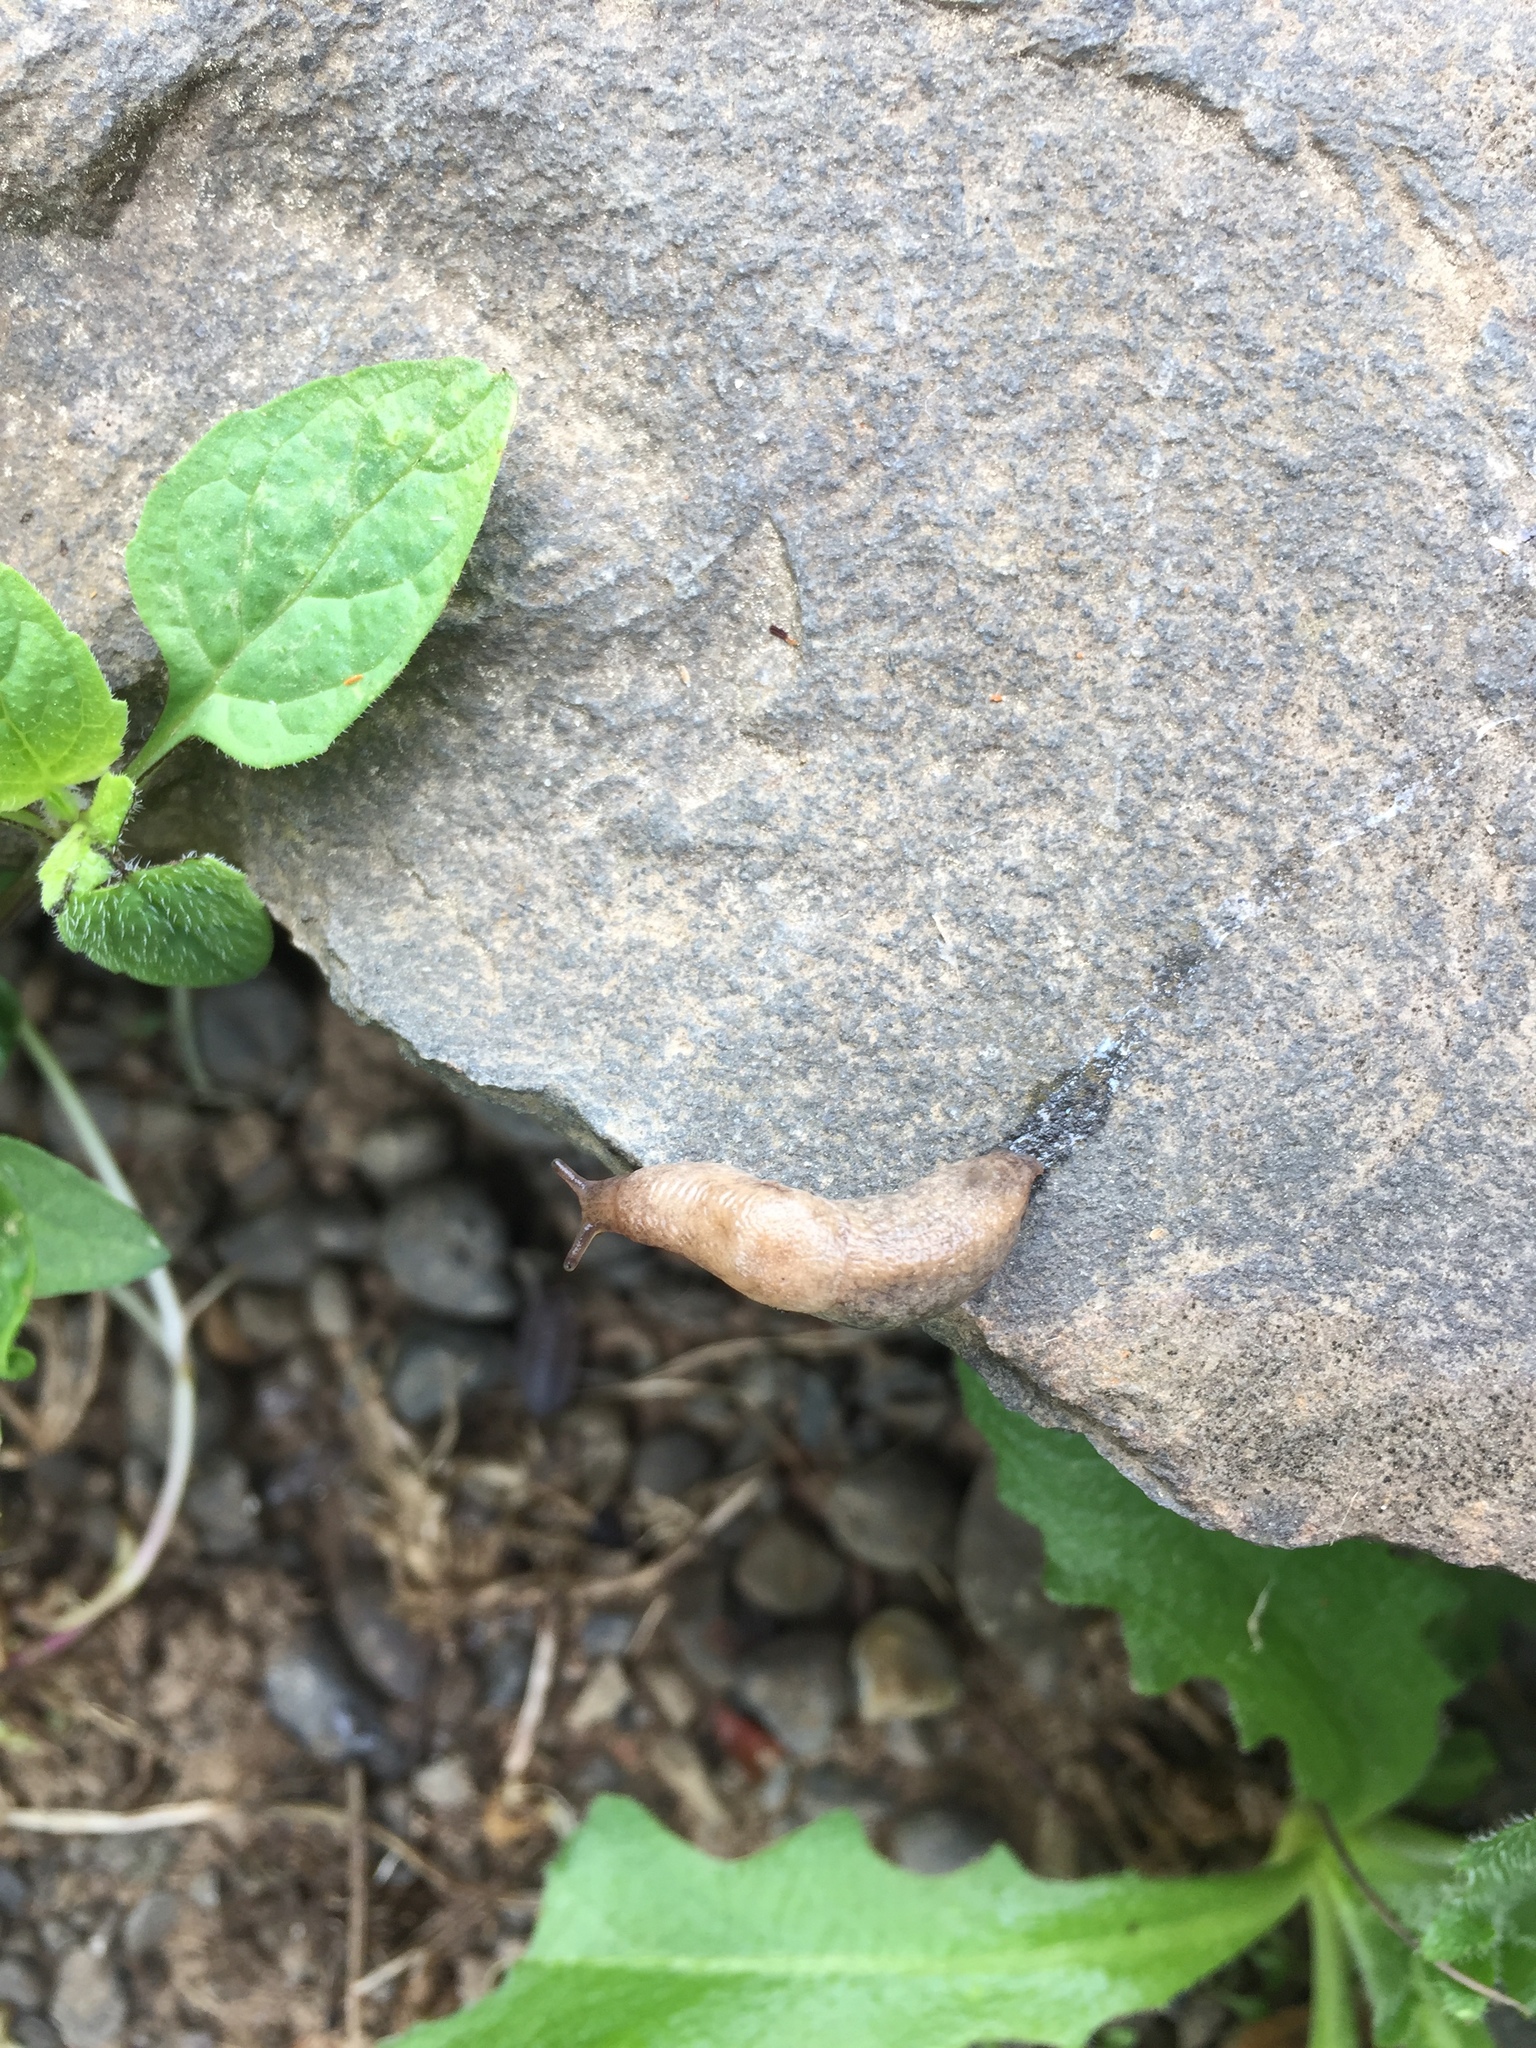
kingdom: Animalia
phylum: Mollusca
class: Gastropoda
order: Stylommatophora
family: Agriolimacidae
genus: Deroceras
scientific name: Deroceras reticulatum
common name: Gray field slug
